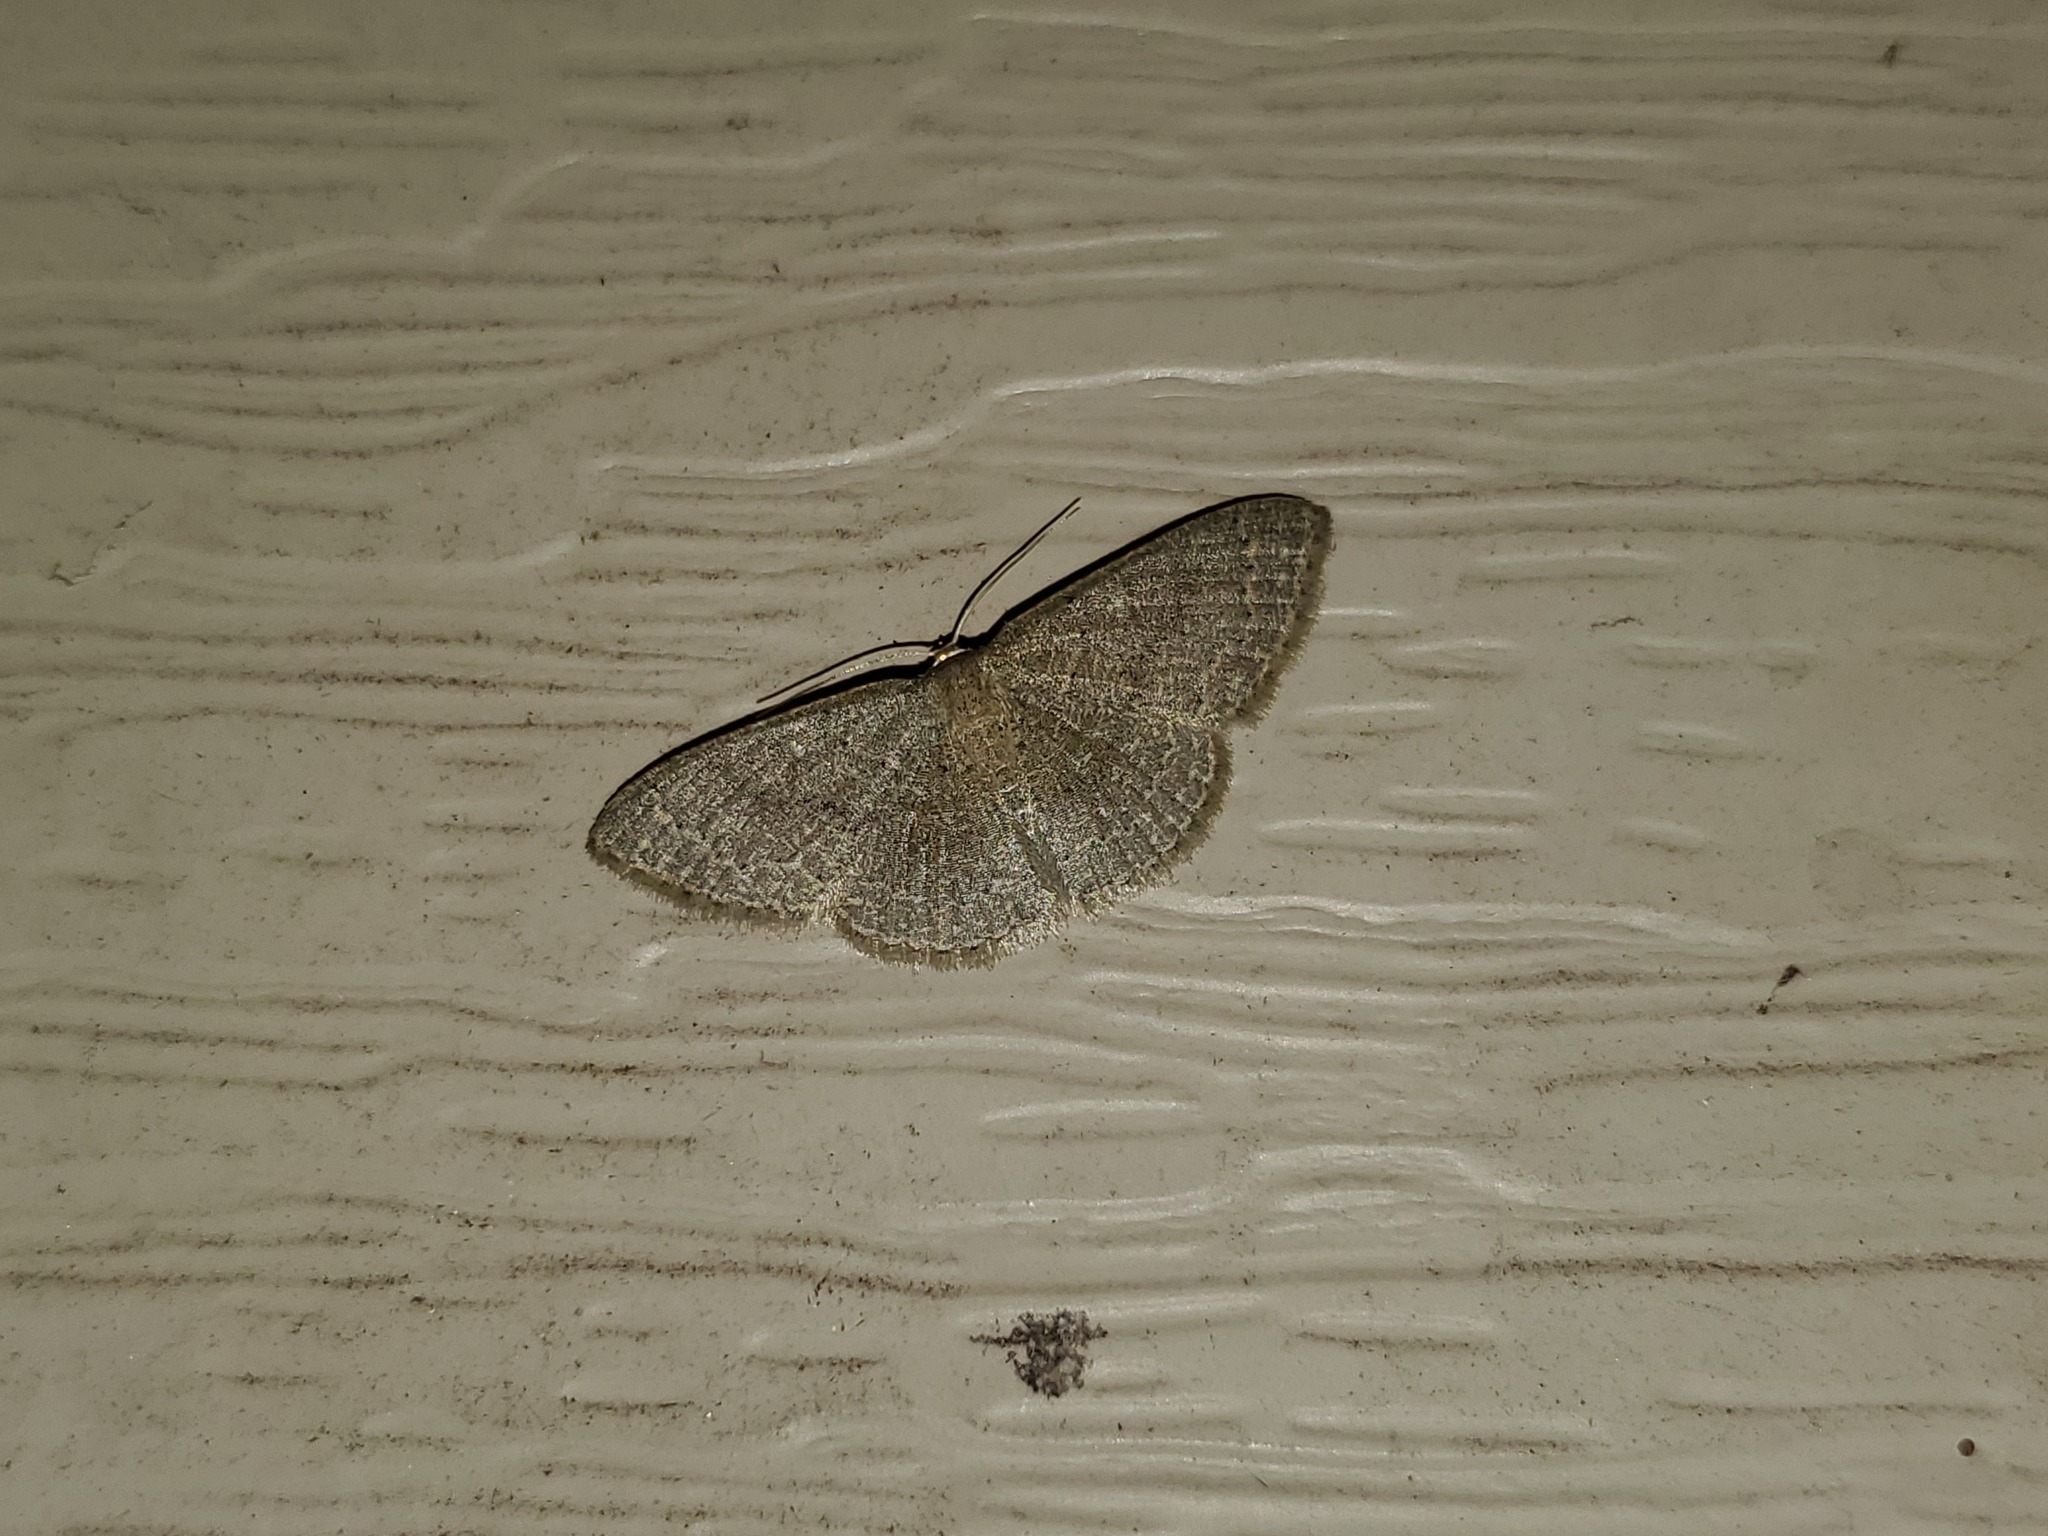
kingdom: Animalia
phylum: Arthropoda
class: Insecta
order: Lepidoptera
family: Geometridae
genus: Pleuroprucha
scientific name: Pleuroprucha insulsaria
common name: Common tan wave
